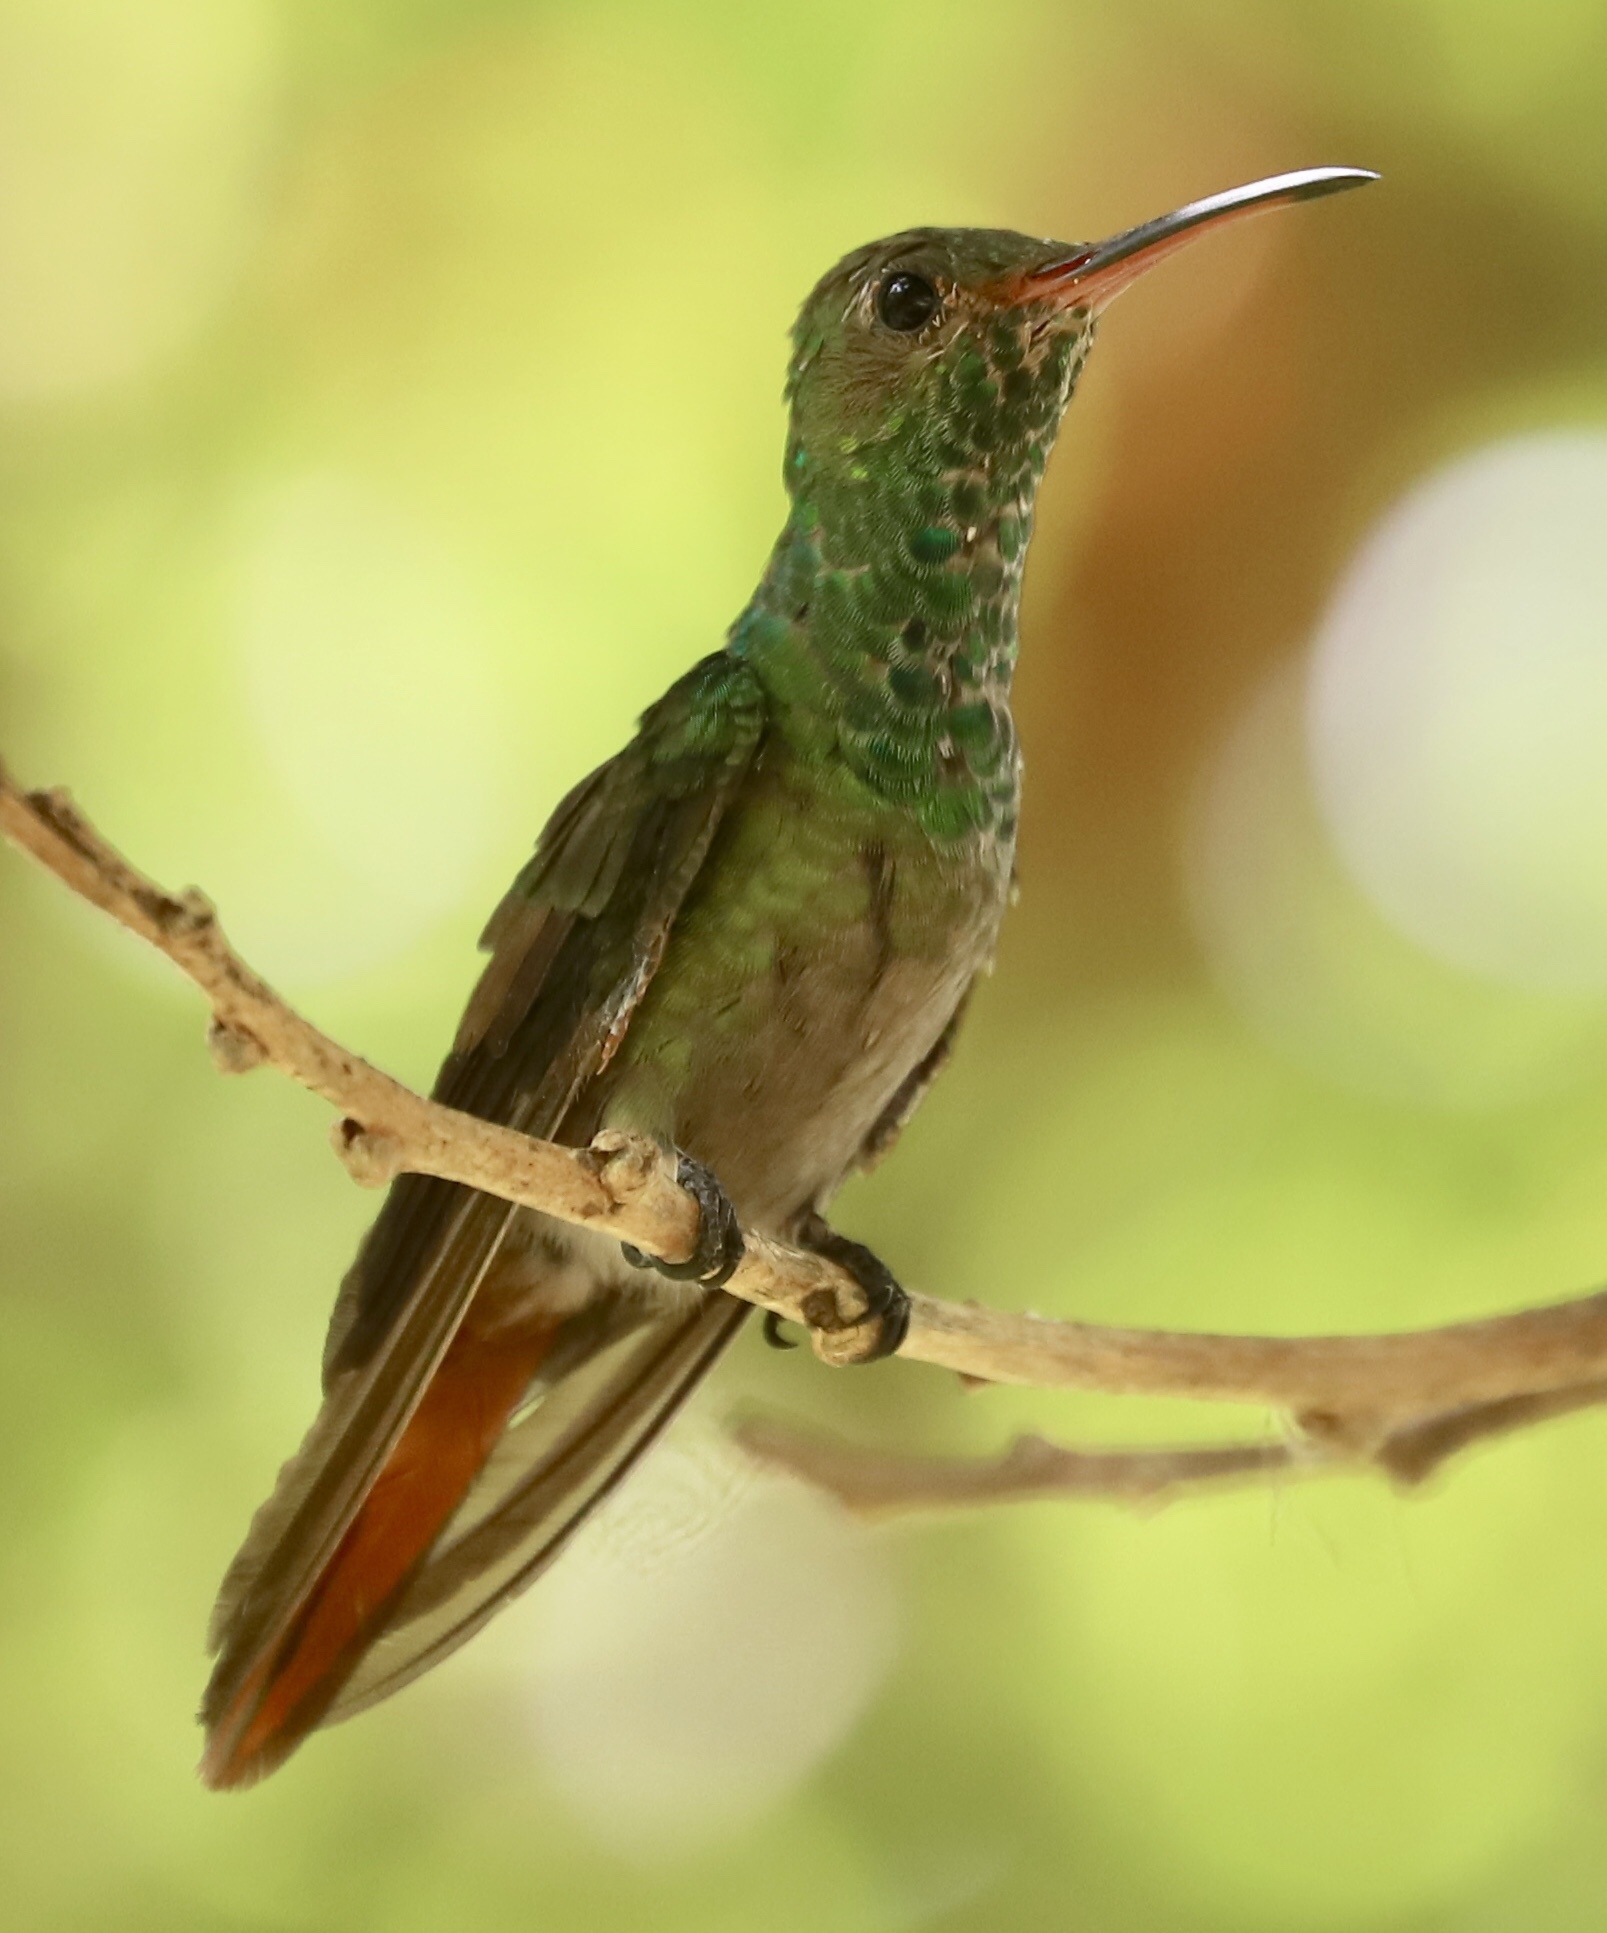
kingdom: Animalia
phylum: Chordata
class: Aves
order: Apodiformes
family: Trochilidae
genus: Amazilia
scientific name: Amazilia tzacatl
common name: Rufous-tailed hummingbird
